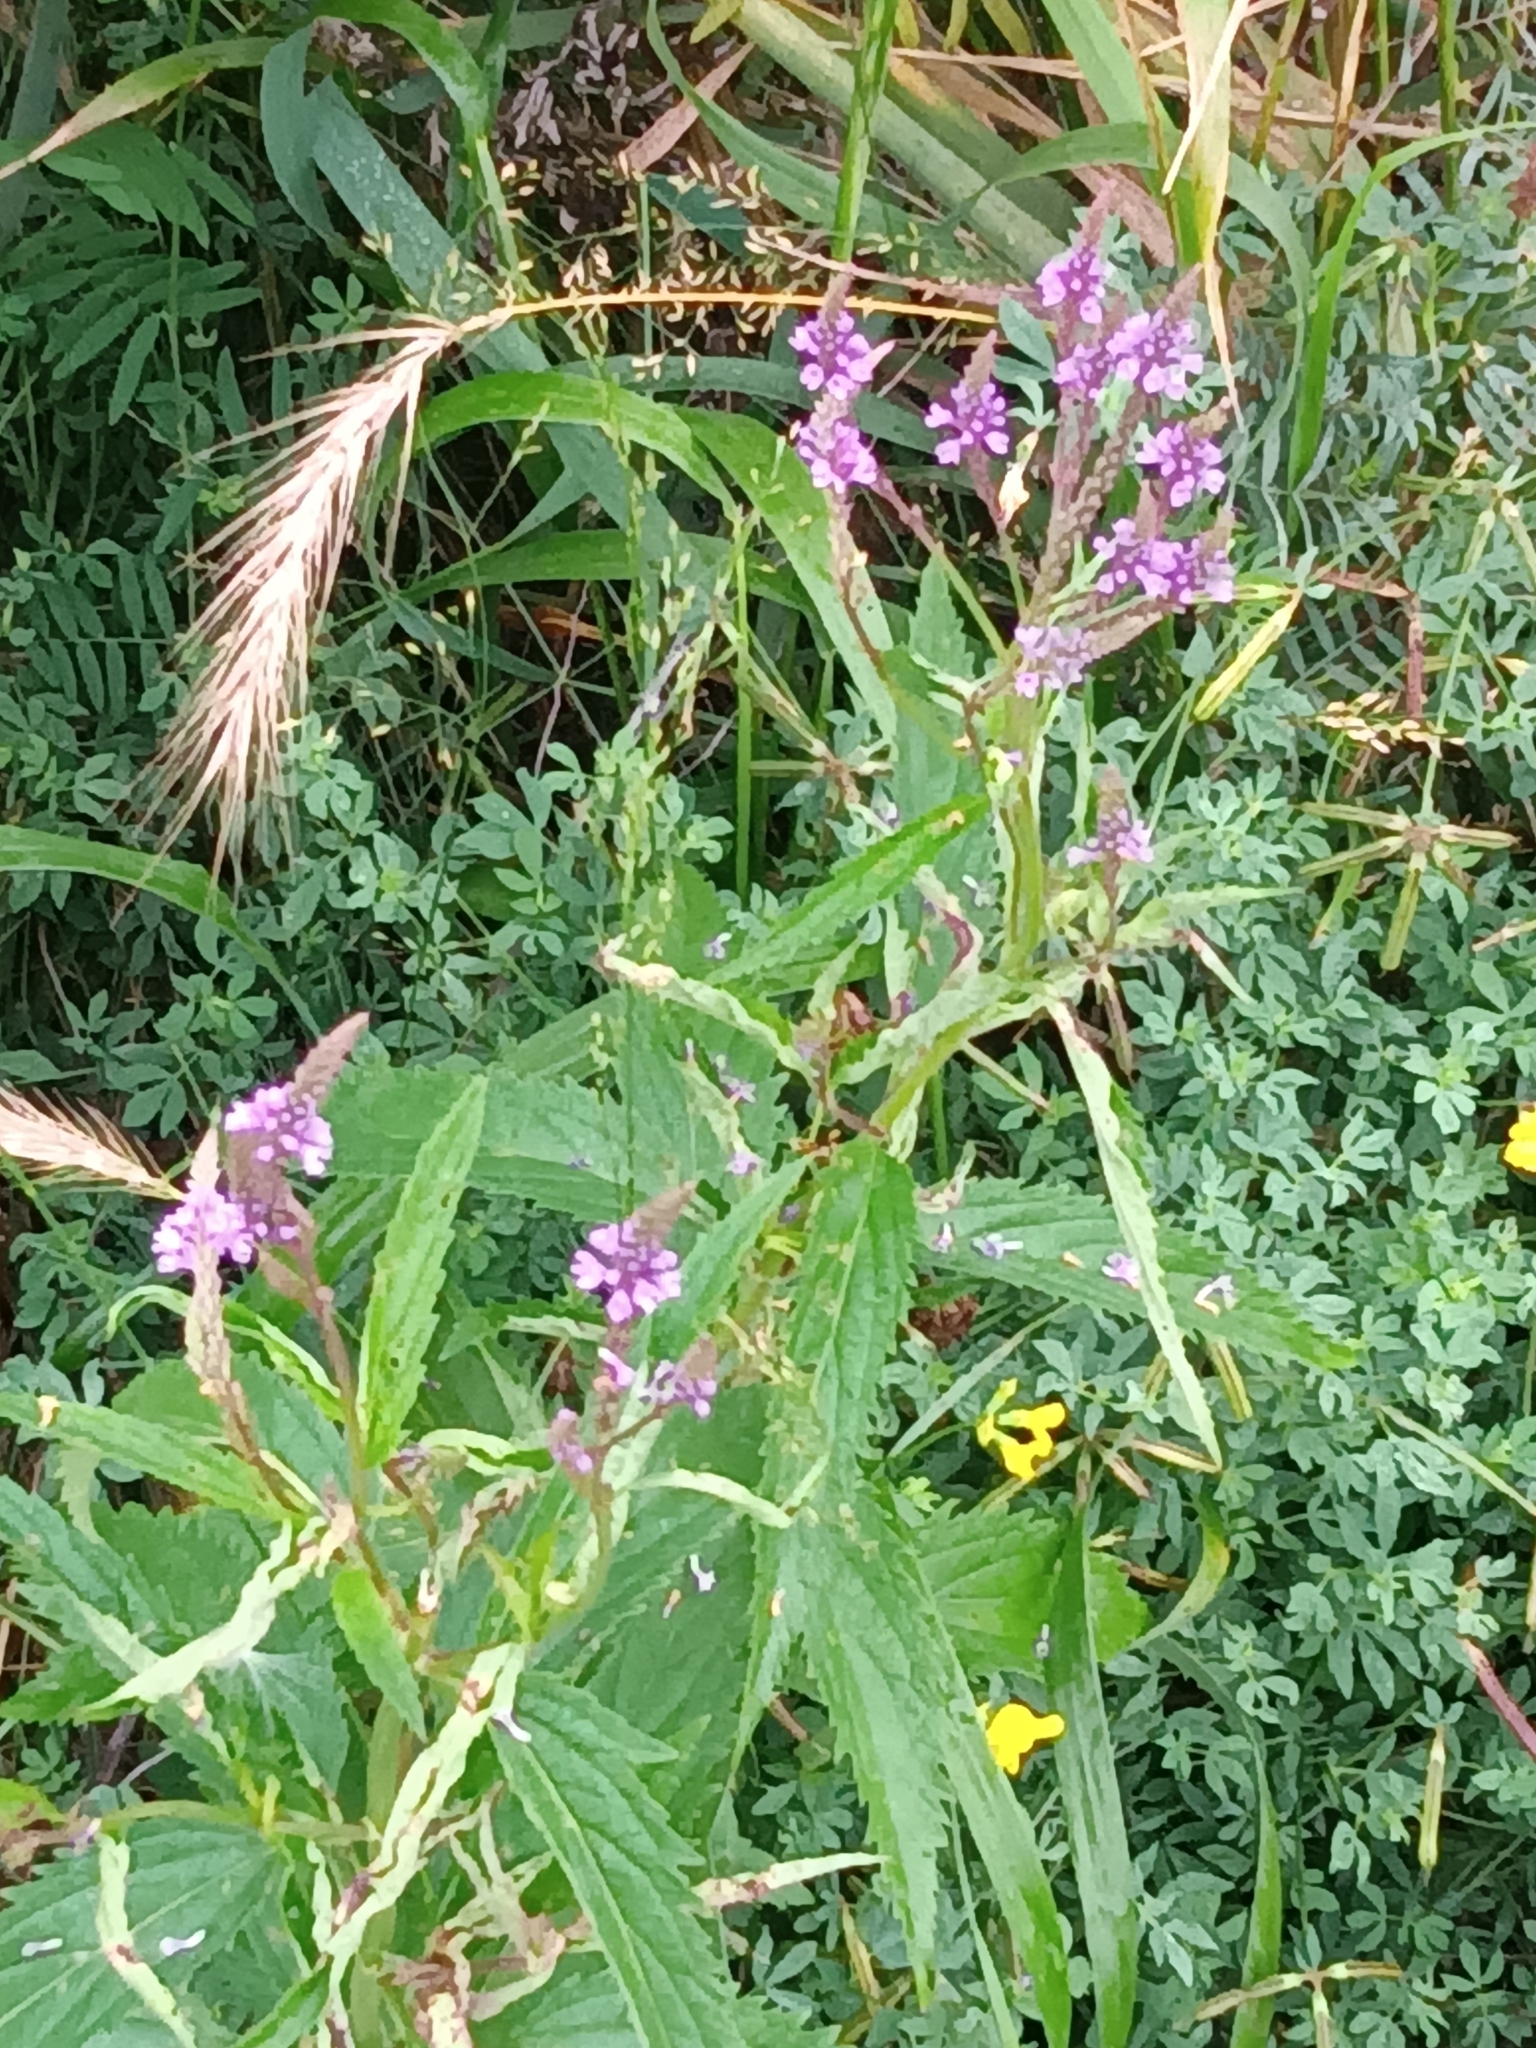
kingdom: Plantae
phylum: Tracheophyta
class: Magnoliopsida
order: Lamiales
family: Verbenaceae
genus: Verbena
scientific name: Verbena hastata
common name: American blue vervain
